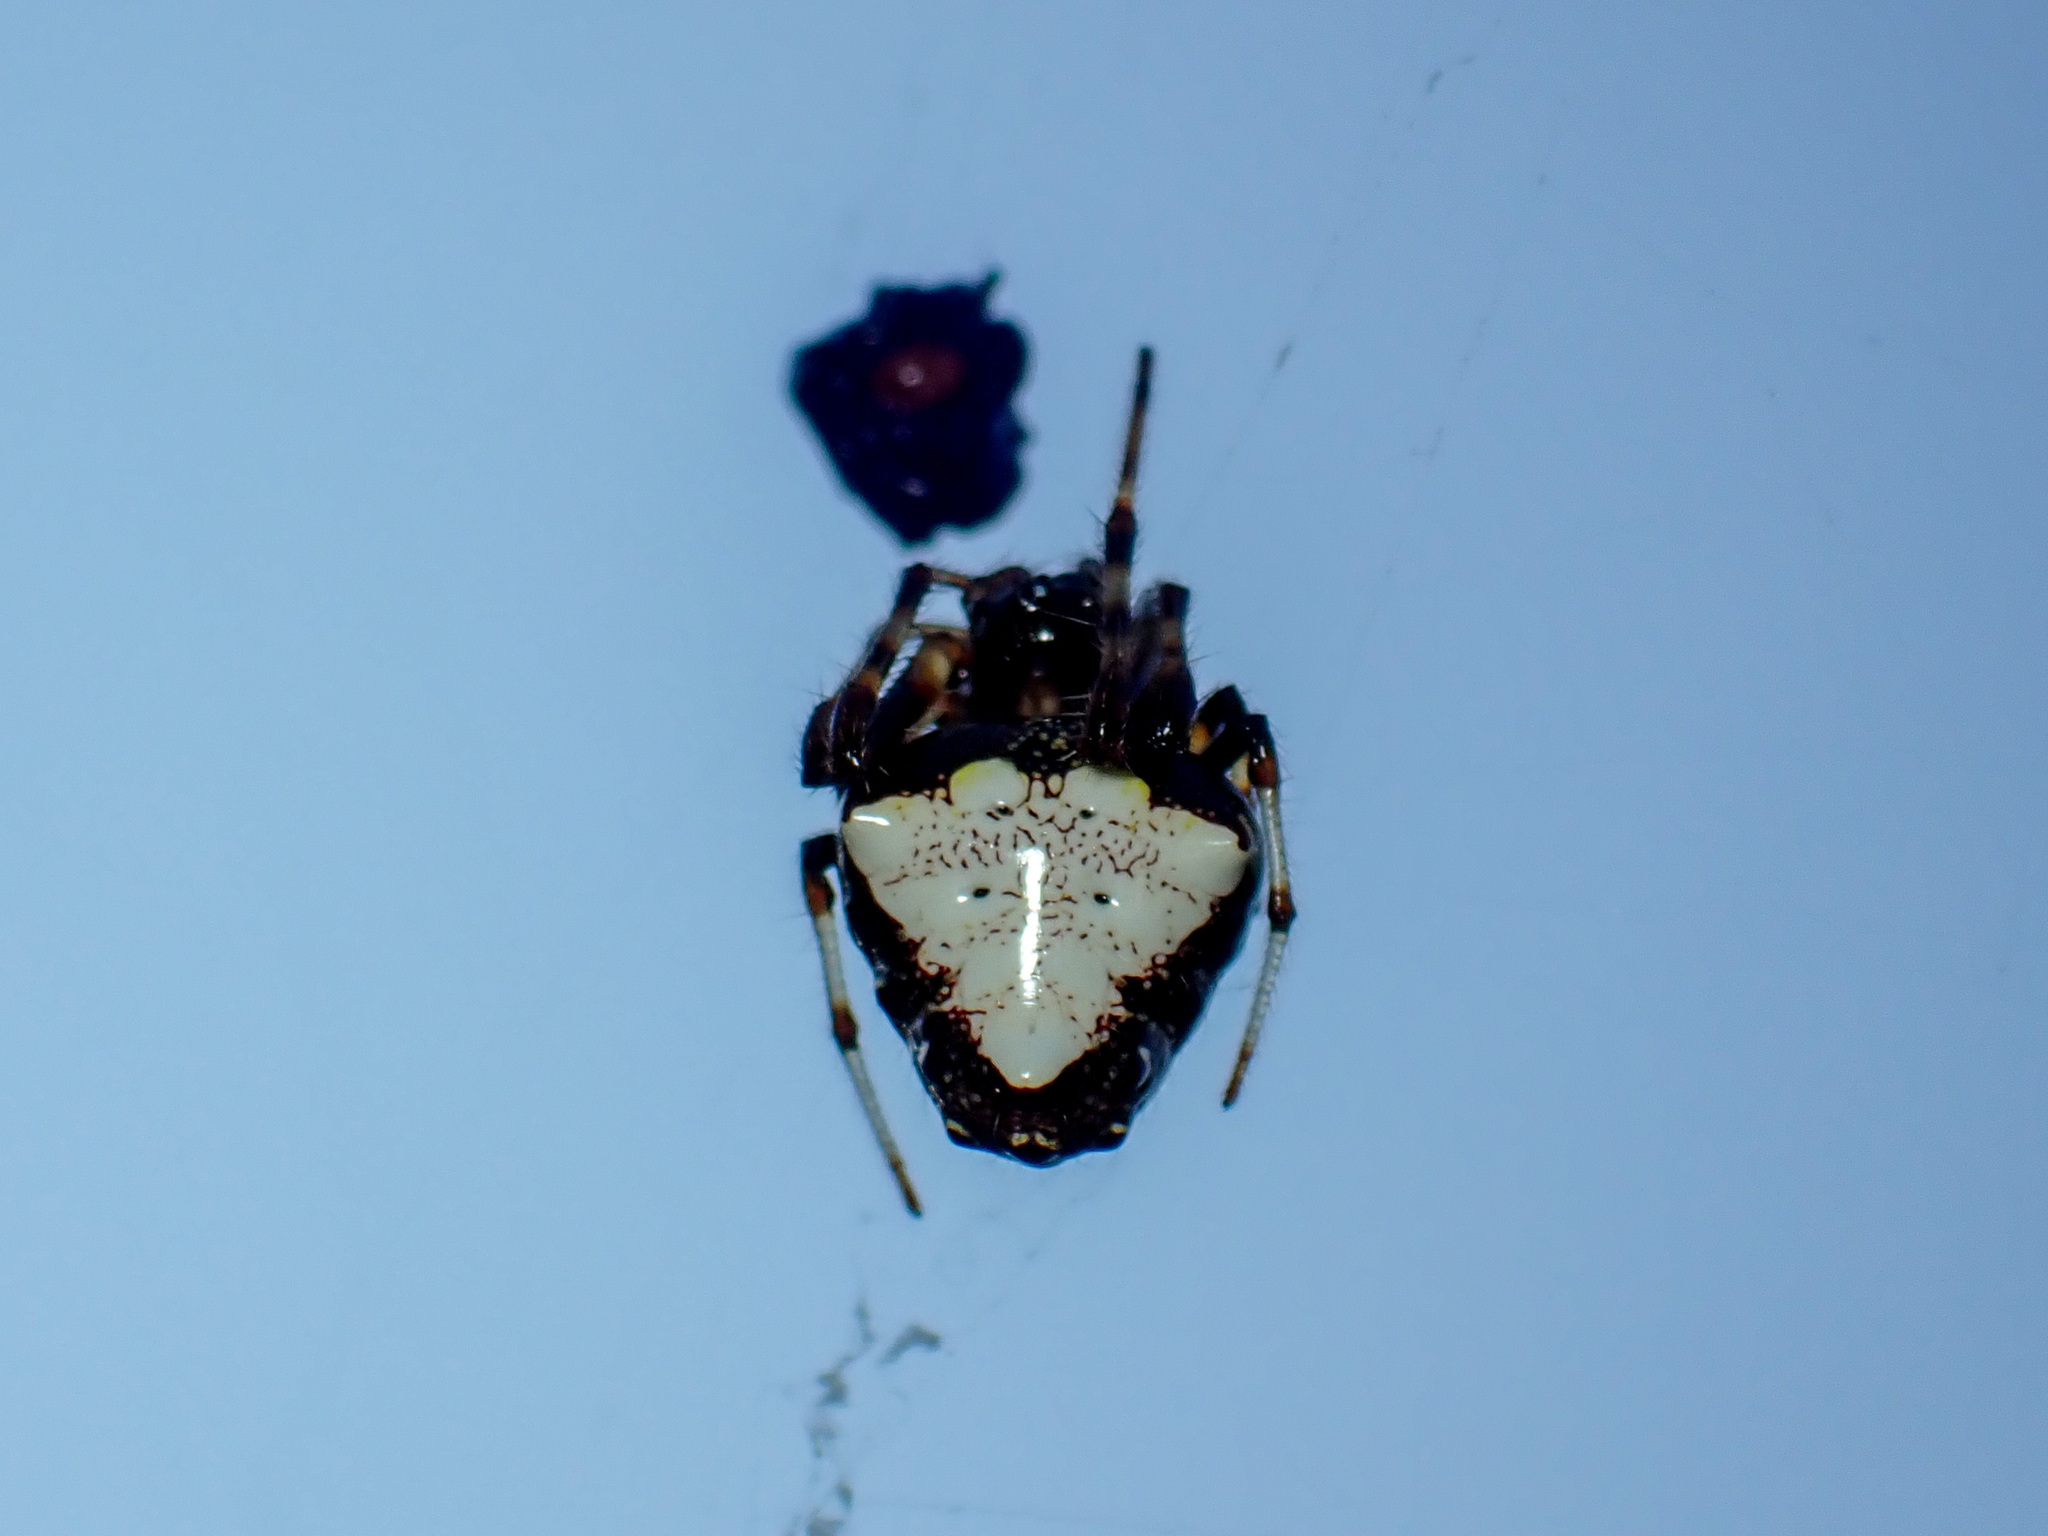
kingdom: Animalia
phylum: Arthropoda
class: Arachnida
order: Araneae
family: Araneidae
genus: Verrucosa
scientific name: Verrucosa arenata
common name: Orb weavers
